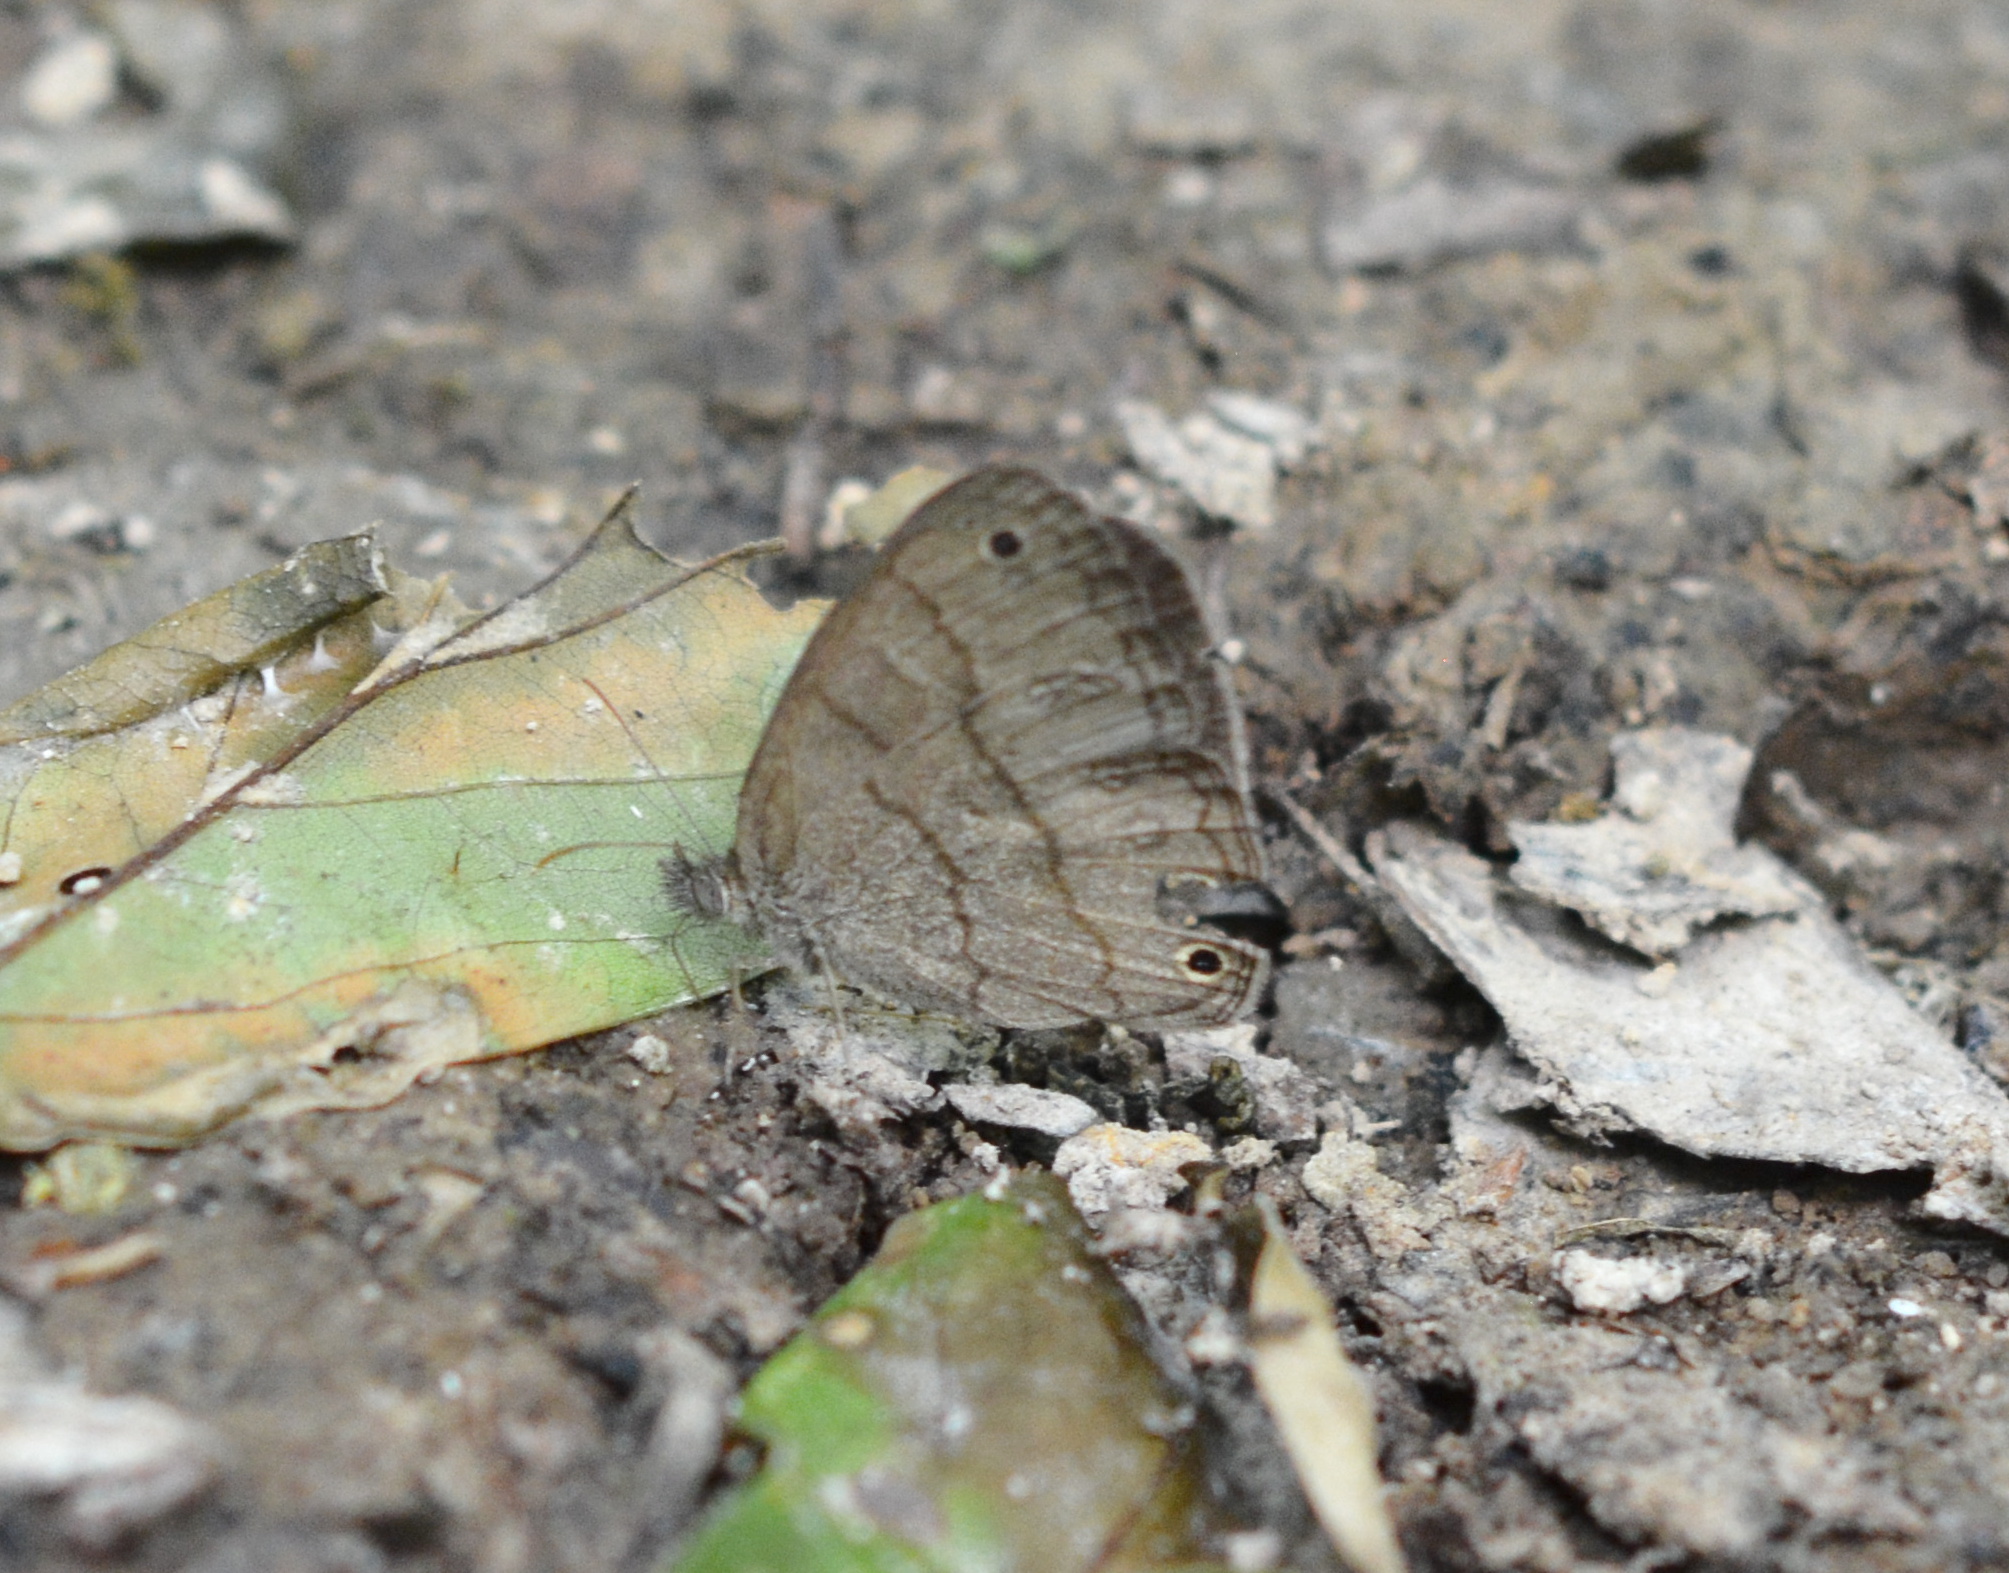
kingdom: Animalia
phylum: Arthropoda
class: Insecta
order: Lepidoptera
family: Nymphalidae
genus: Hermeuptychia
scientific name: Hermeuptychia intricata
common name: Intricate satyr
